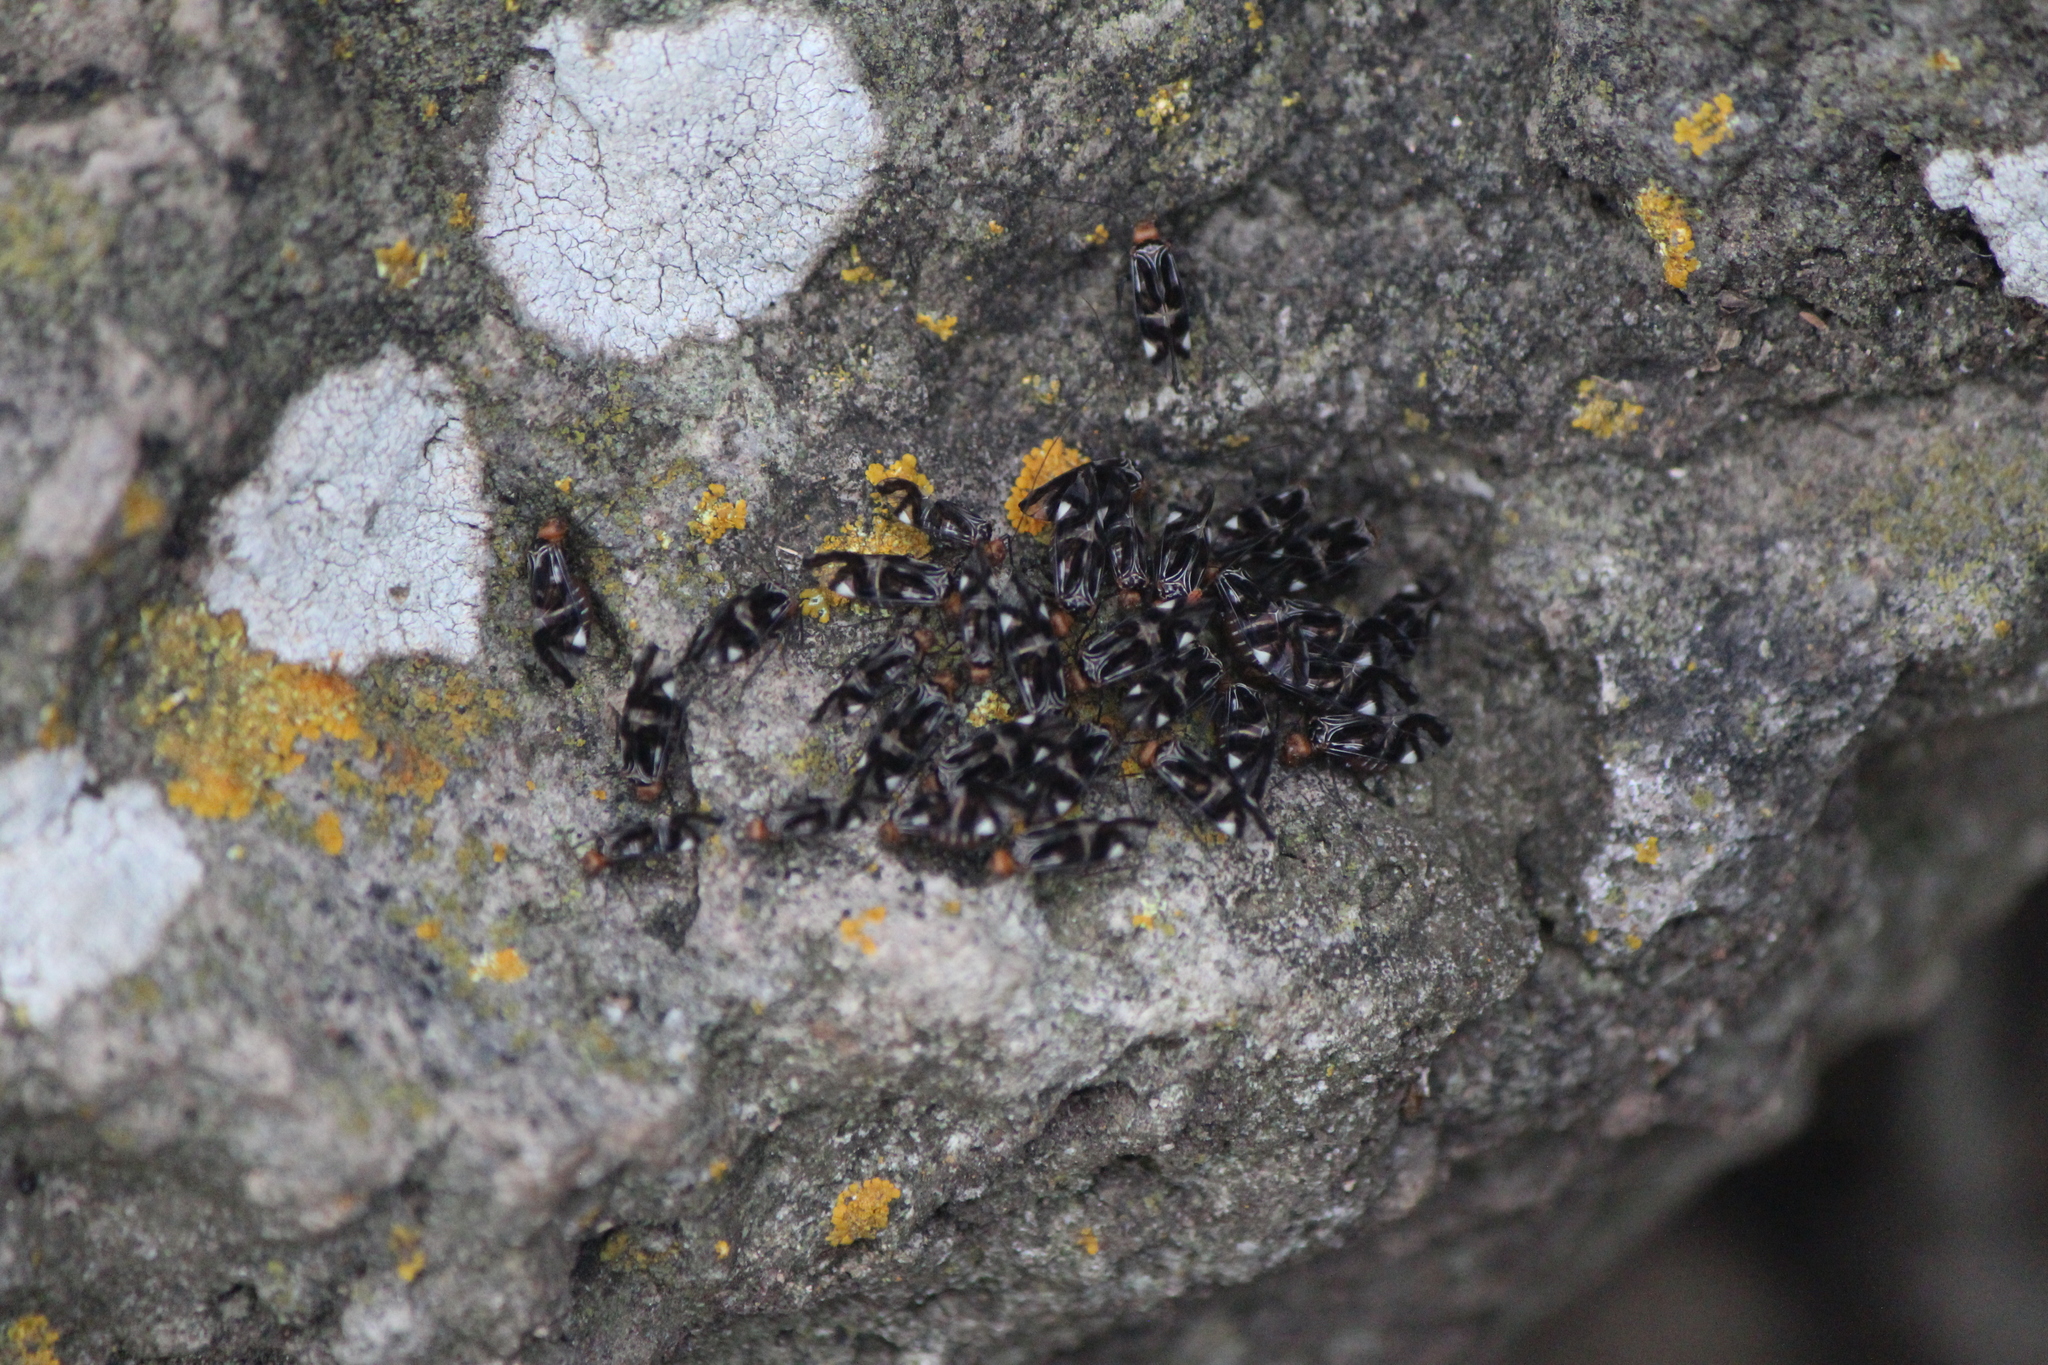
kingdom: Animalia
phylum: Arthropoda
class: Insecta
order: Psocodea
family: Psocidae
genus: Cerastipsocus
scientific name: Cerastipsocus trifasciatus
